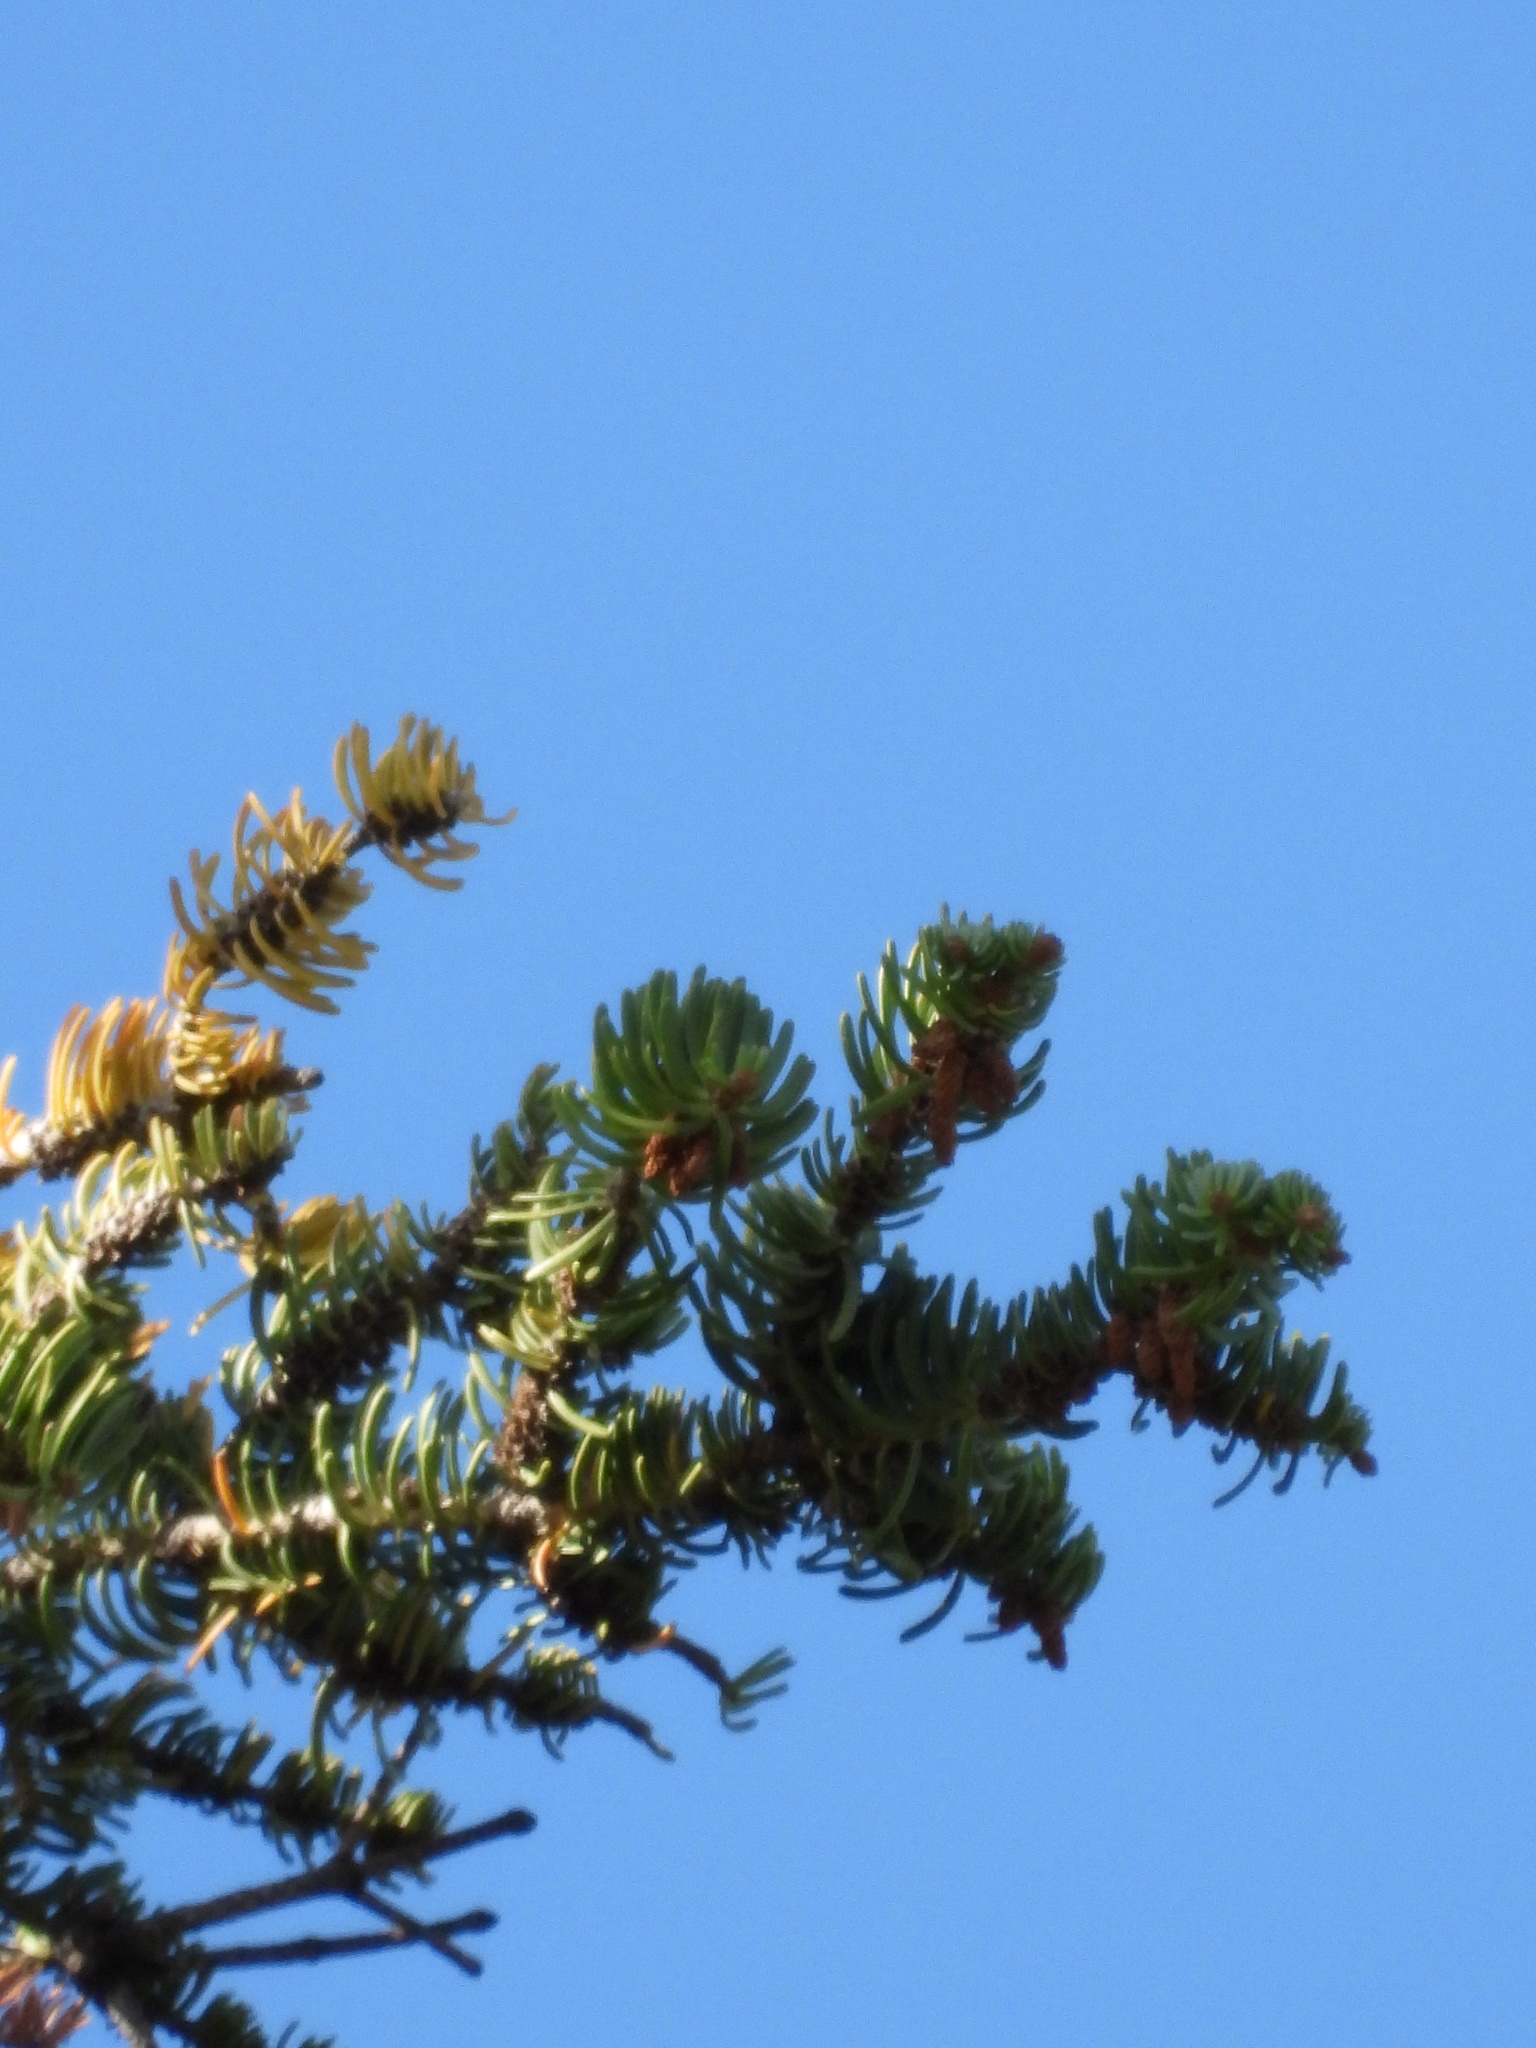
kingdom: Plantae
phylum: Tracheophyta
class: Pinopsida
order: Pinales
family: Pinaceae
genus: Abies
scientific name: Abies concolor
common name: Colorado fir
